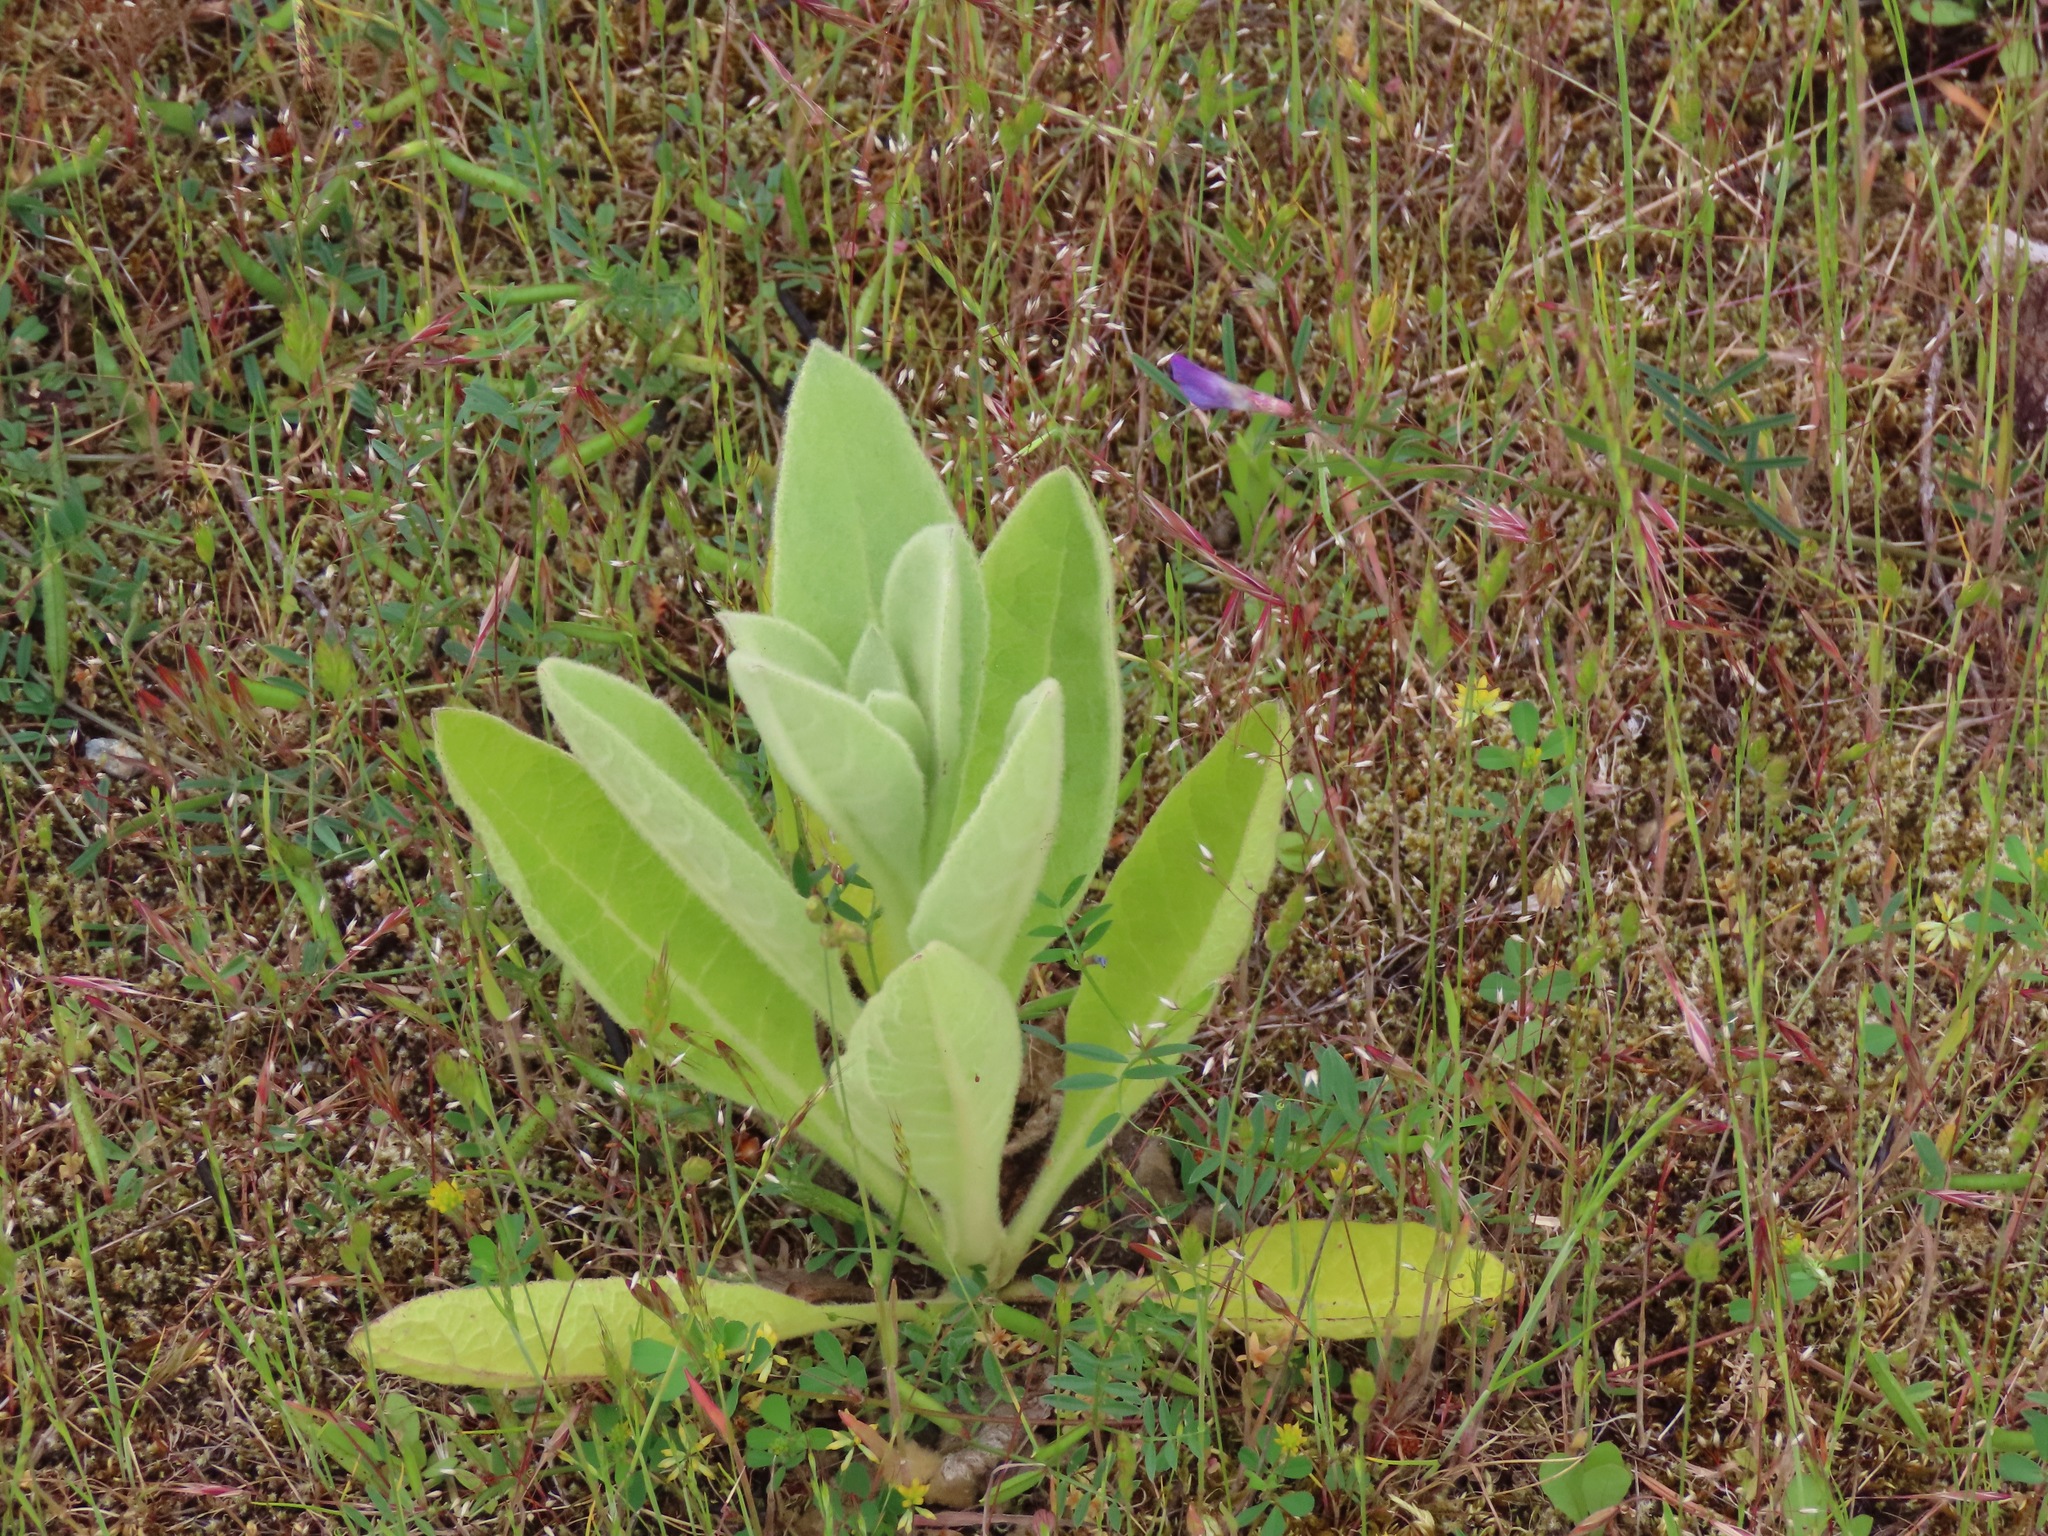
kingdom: Plantae
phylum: Tracheophyta
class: Magnoliopsida
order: Lamiales
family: Scrophulariaceae
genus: Verbascum
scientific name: Verbascum thapsus
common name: Common mullein
